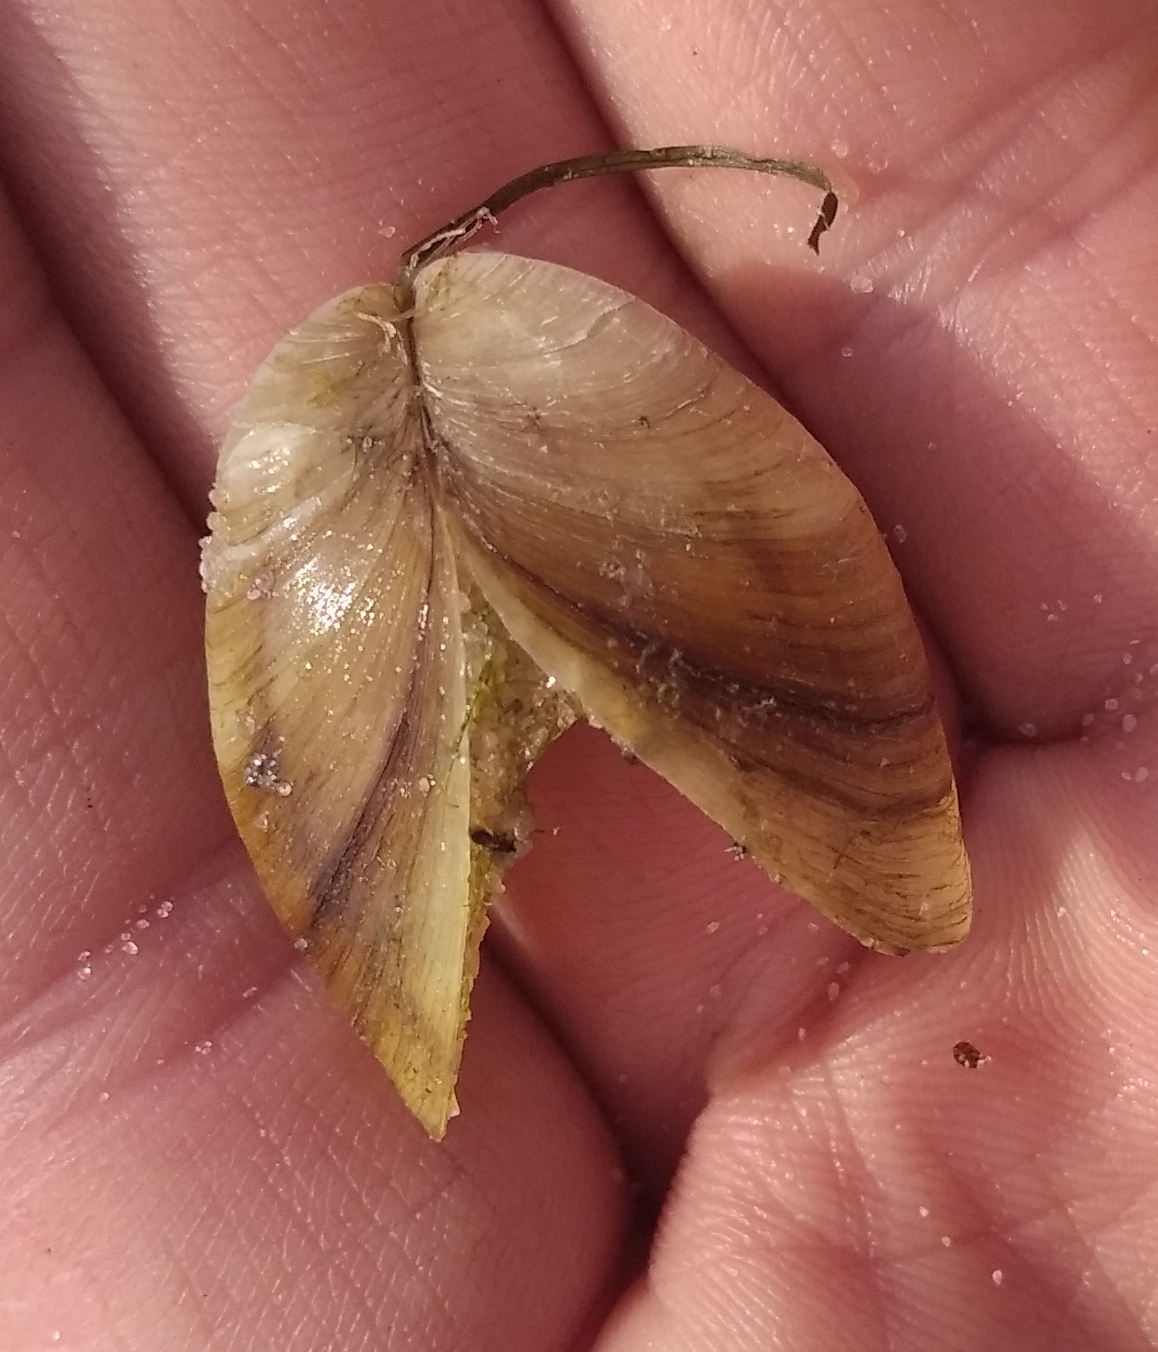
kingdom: Animalia
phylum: Mollusca
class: Bivalvia
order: Myida
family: Dreissenidae
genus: Dreissena
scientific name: Dreissena polymorpha
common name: Zebra mussel
